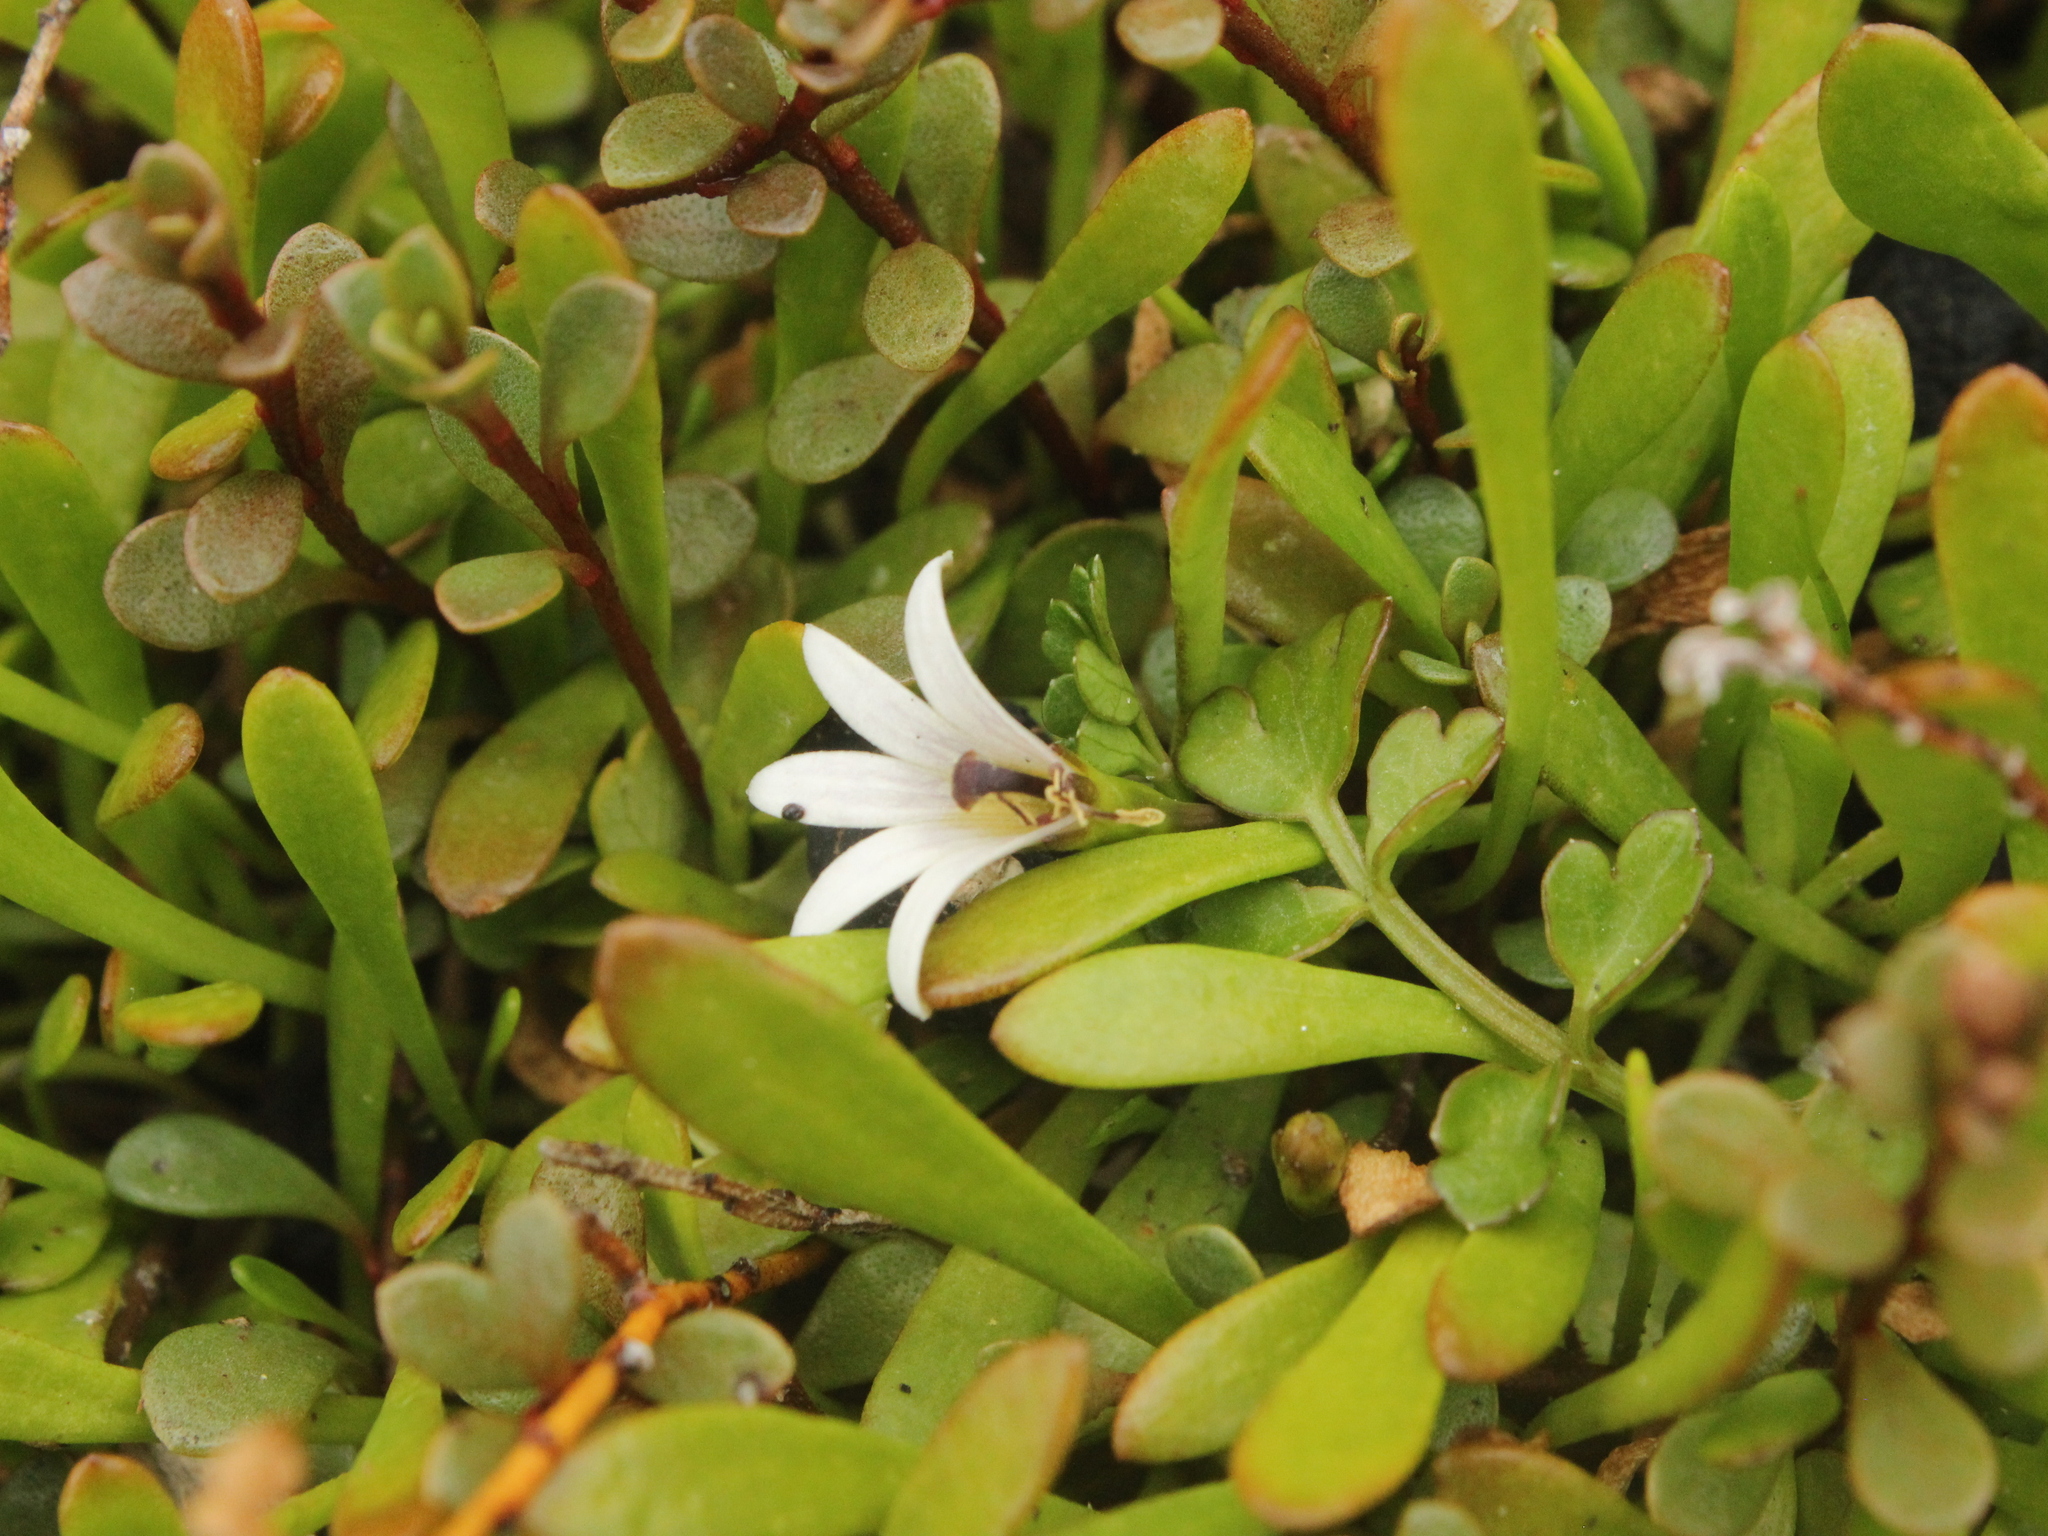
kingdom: Plantae
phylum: Tracheophyta
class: Magnoliopsida
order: Asterales
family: Goodeniaceae
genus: Goodenia
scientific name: Goodenia radicans
